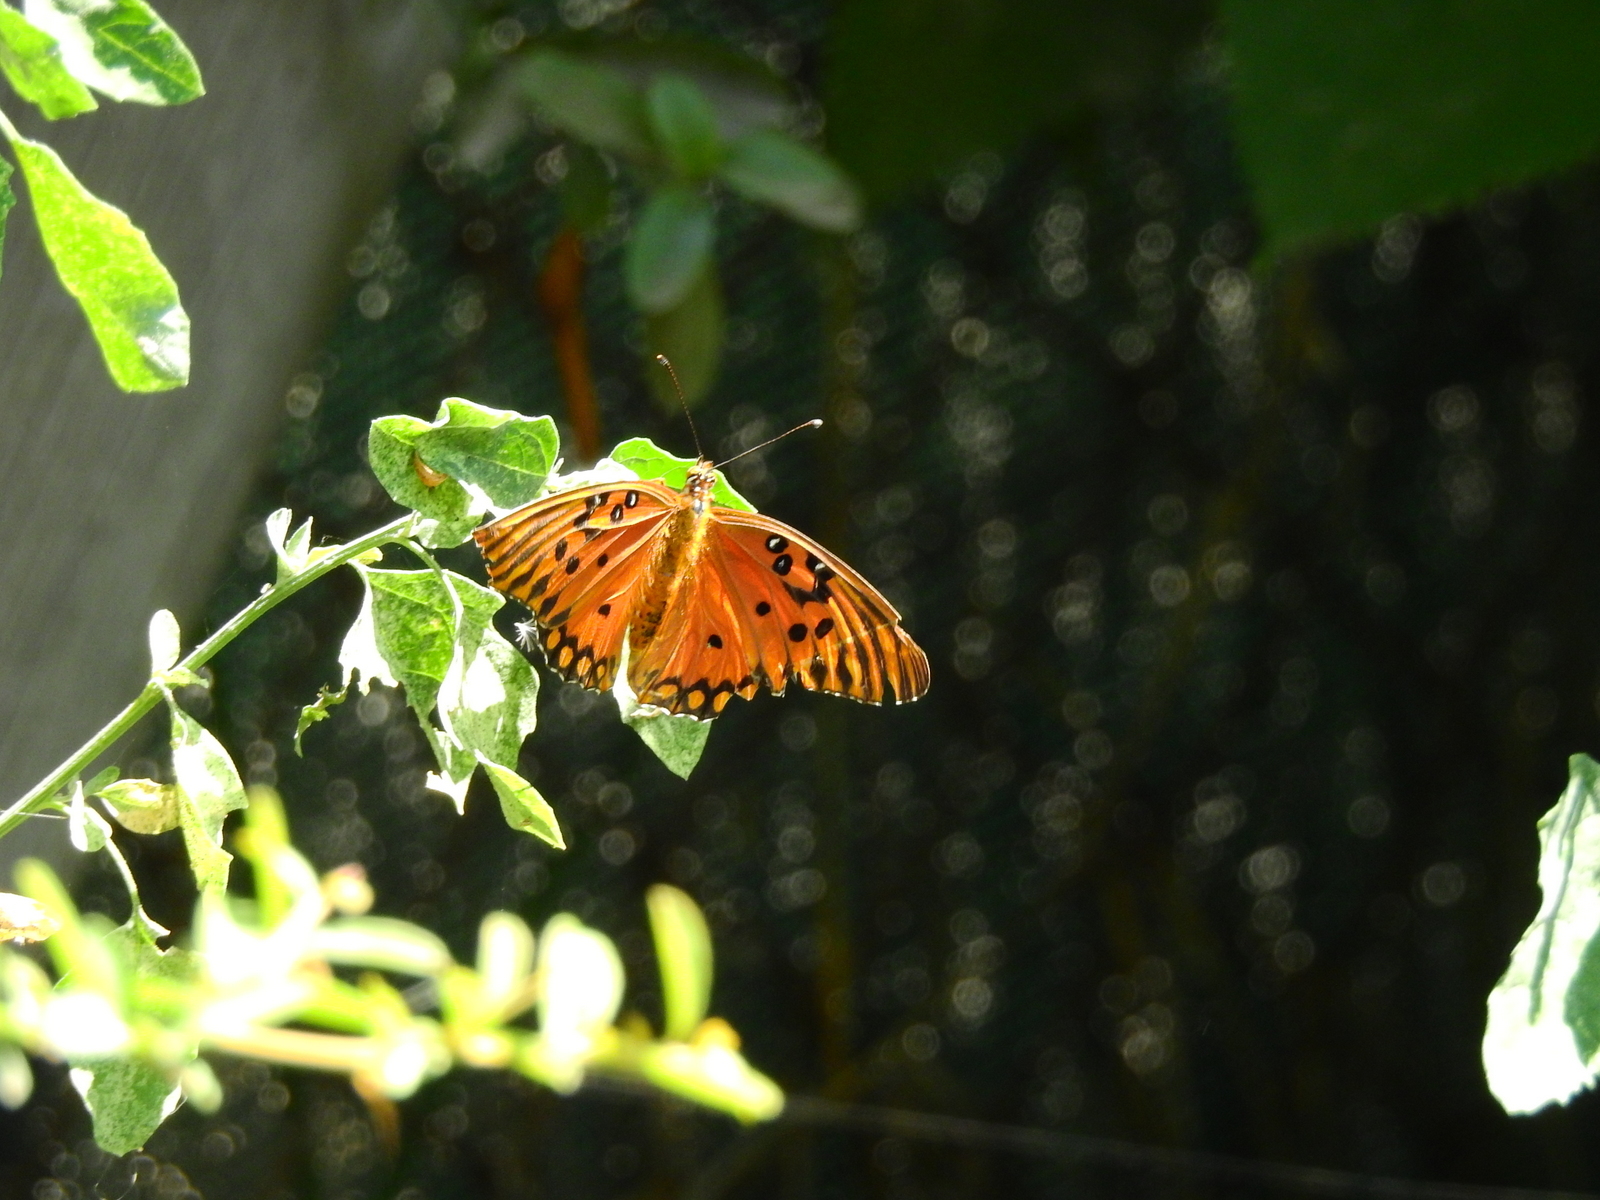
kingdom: Animalia
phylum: Arthropoda
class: Insecta
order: Lepidoptera
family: Nymphalidae
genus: Dione
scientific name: Dione vanillae
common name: Gulf fritillary
